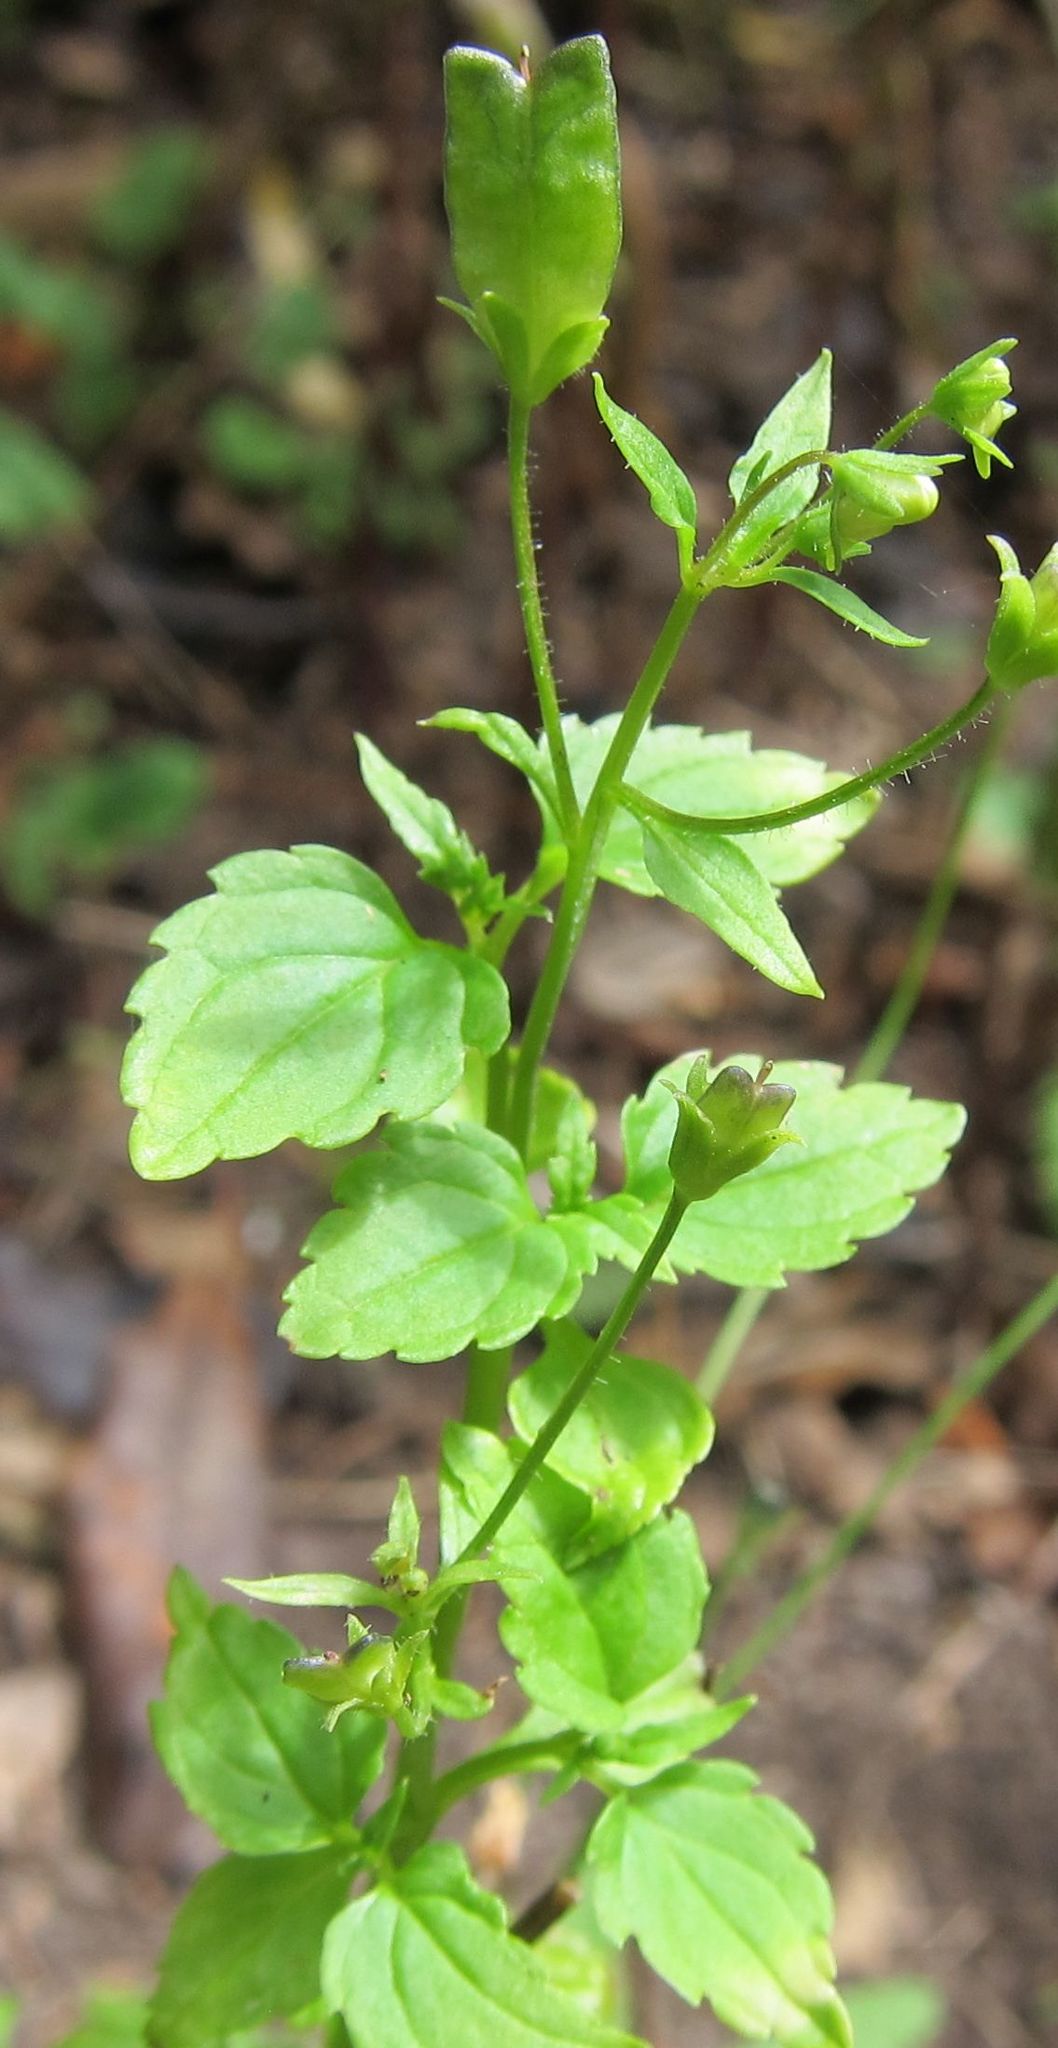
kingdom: Plantae
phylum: Tracheophyta
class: Magnoliopsida
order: Lamiales
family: Scrophulariaceae
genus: Nemesia
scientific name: Nemesia floribunda
